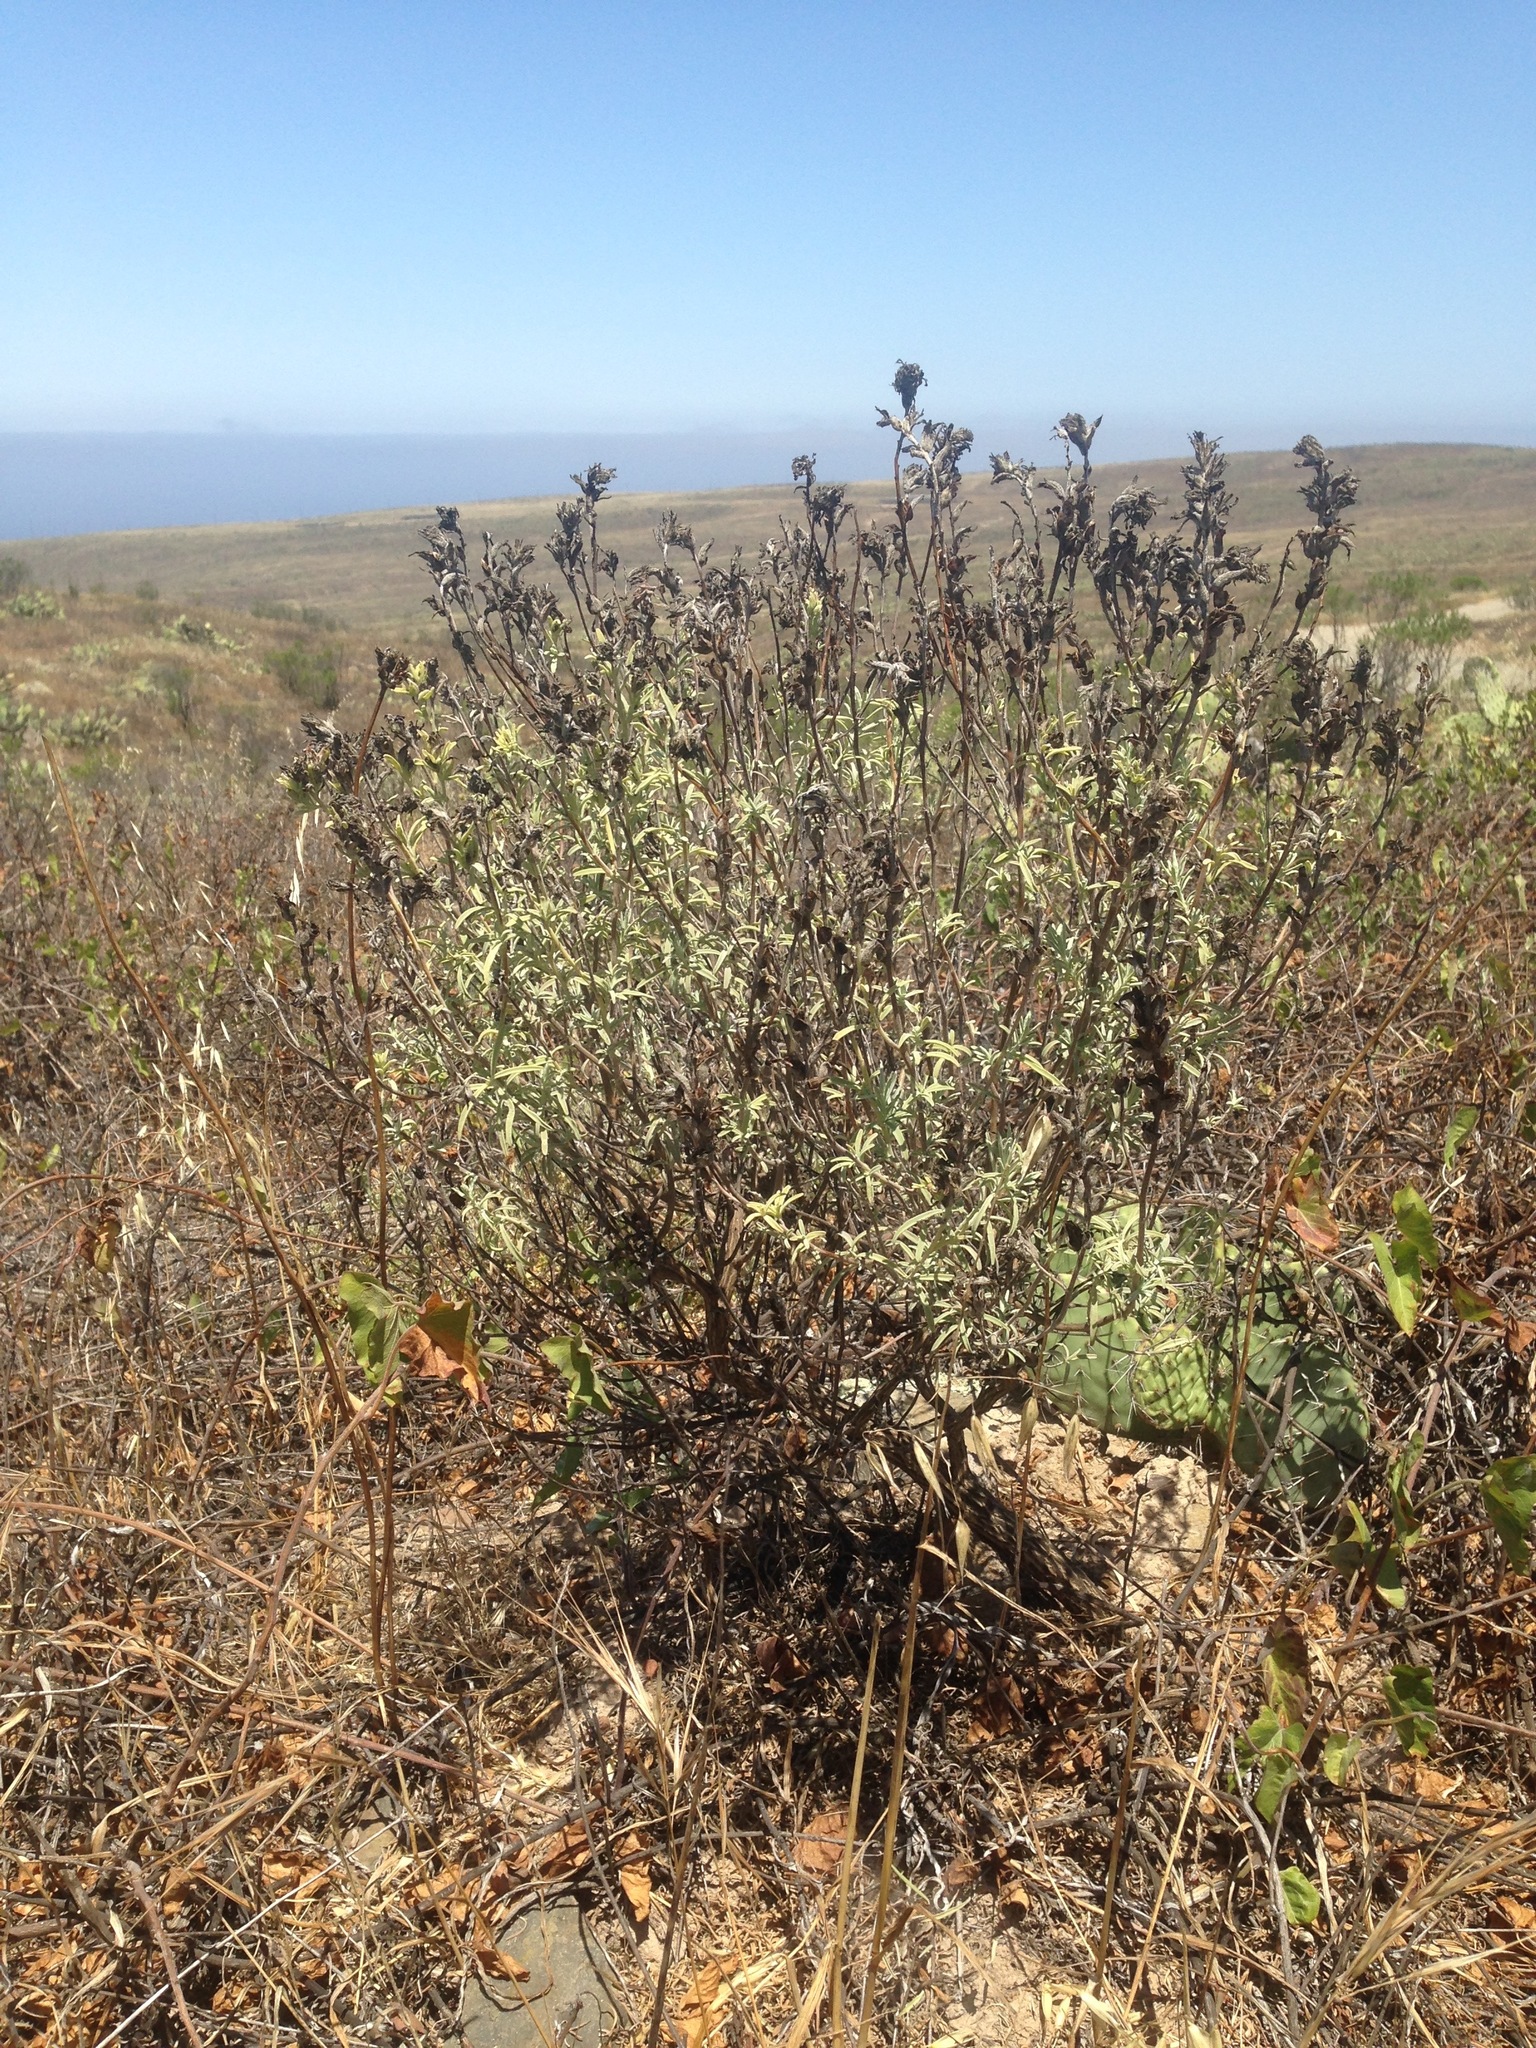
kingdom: Plantae
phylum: Tracheophyta
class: Magnoliopsida
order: Lamiales
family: Orobanchaceae
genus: Castilleja
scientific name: Castilleja grisea
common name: San clemente island indian paintbrush
